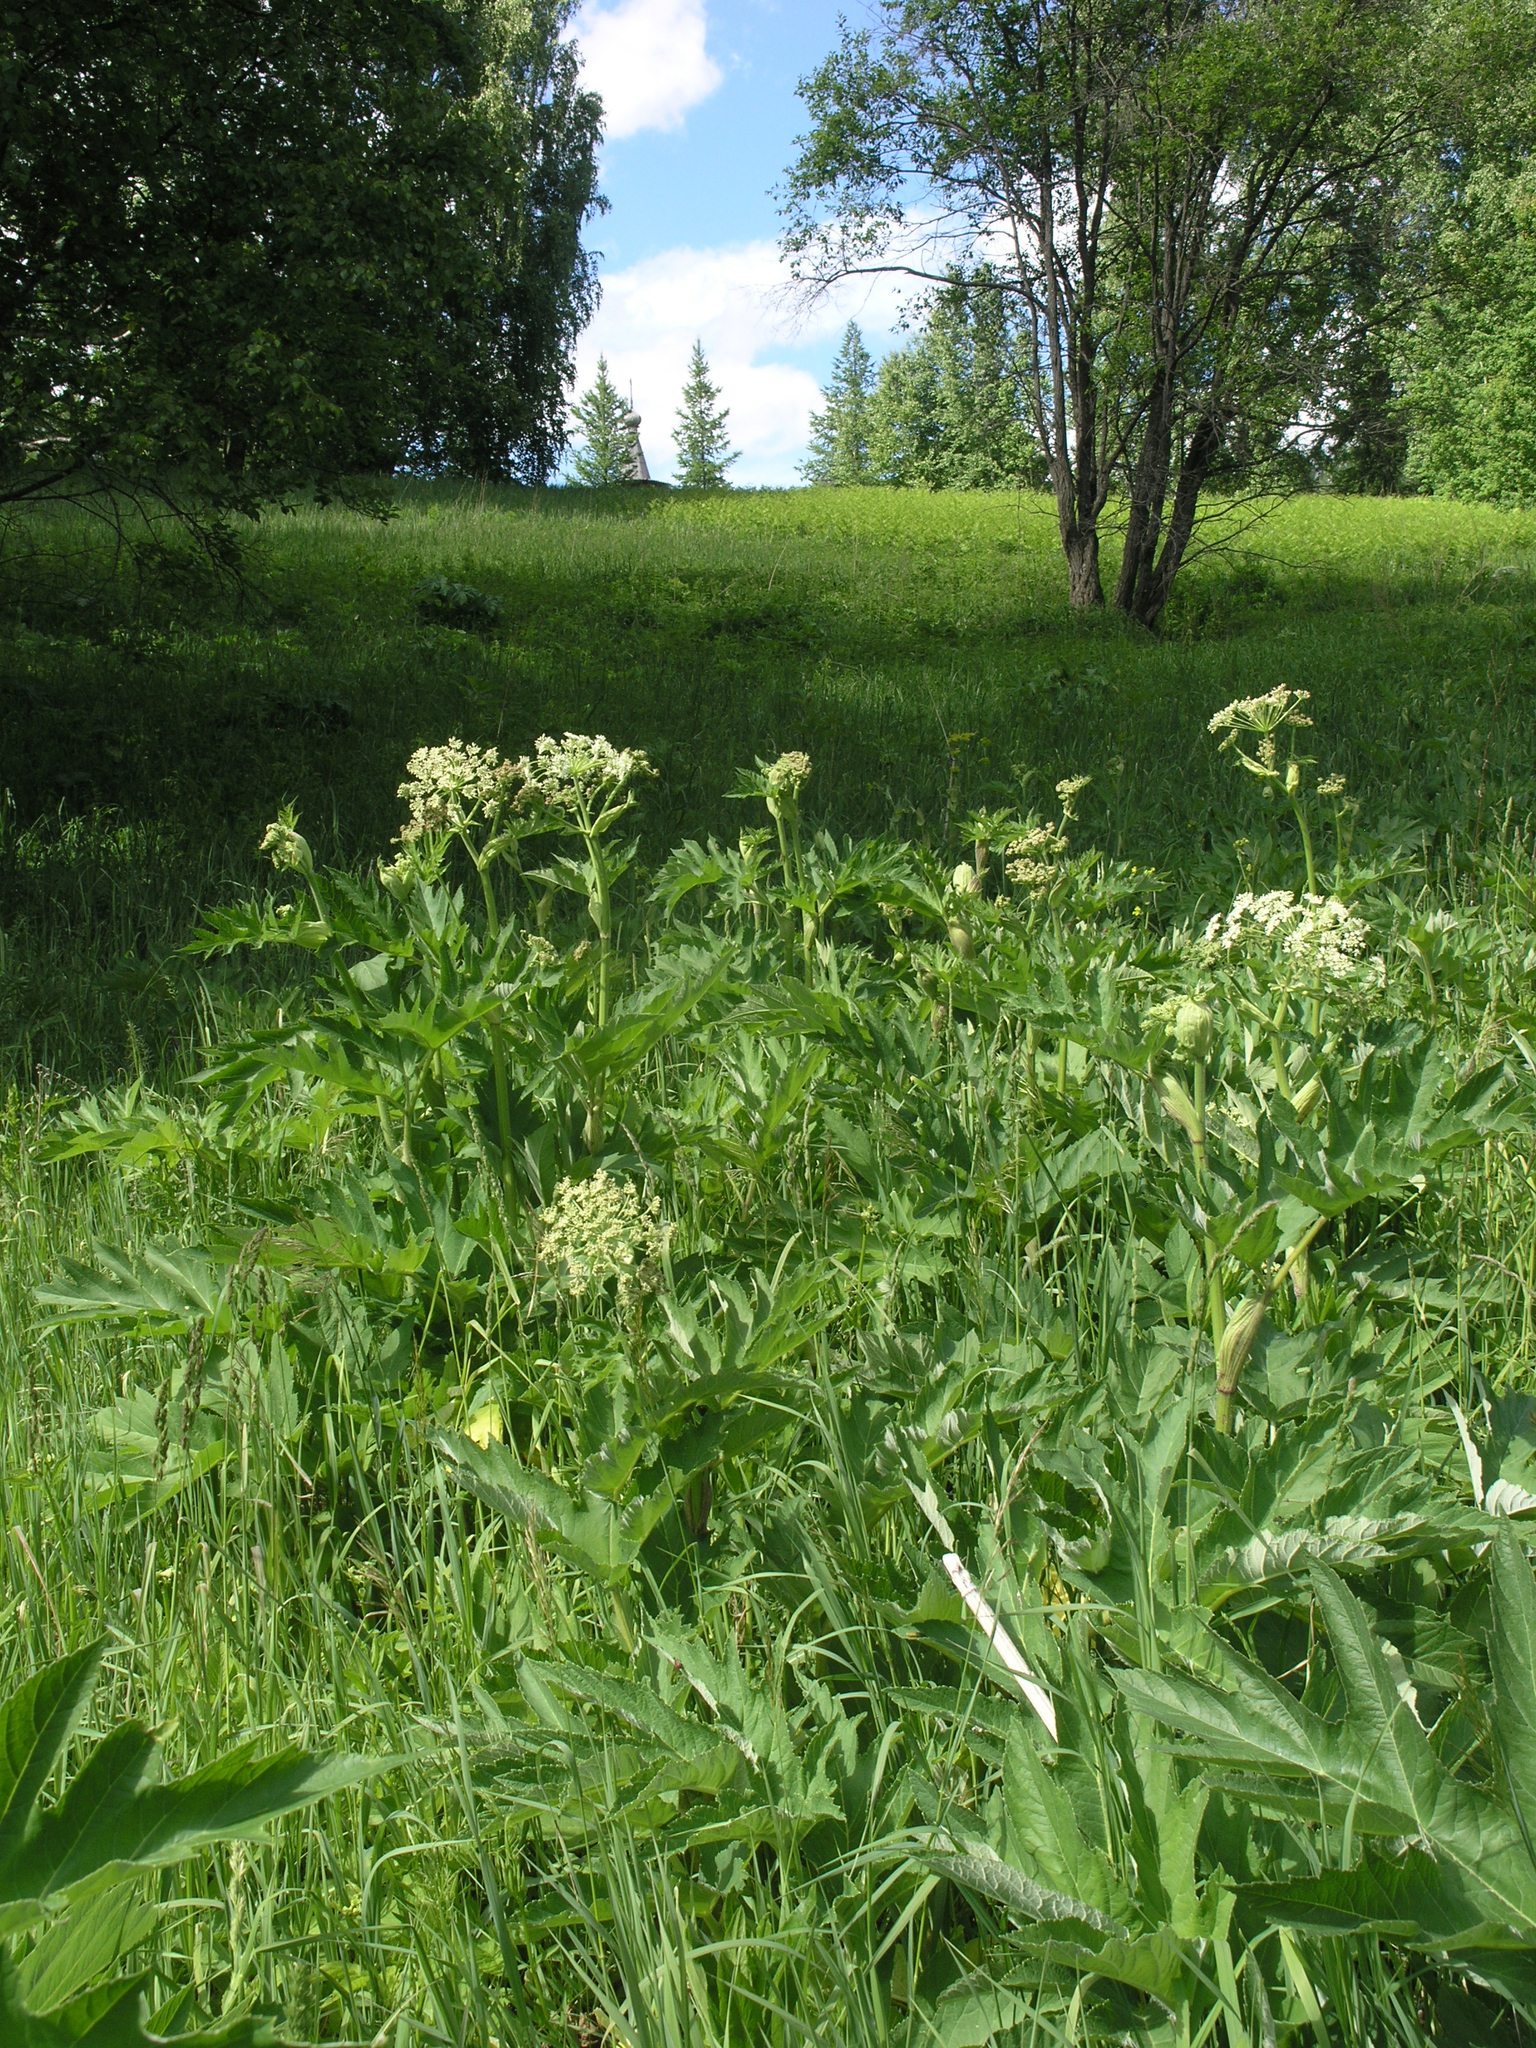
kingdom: Plantae
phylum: Tracheophyta
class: Magnoliopsida
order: Apiales
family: Apiaceae
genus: Heracleum
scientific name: Heracleum dissectum
